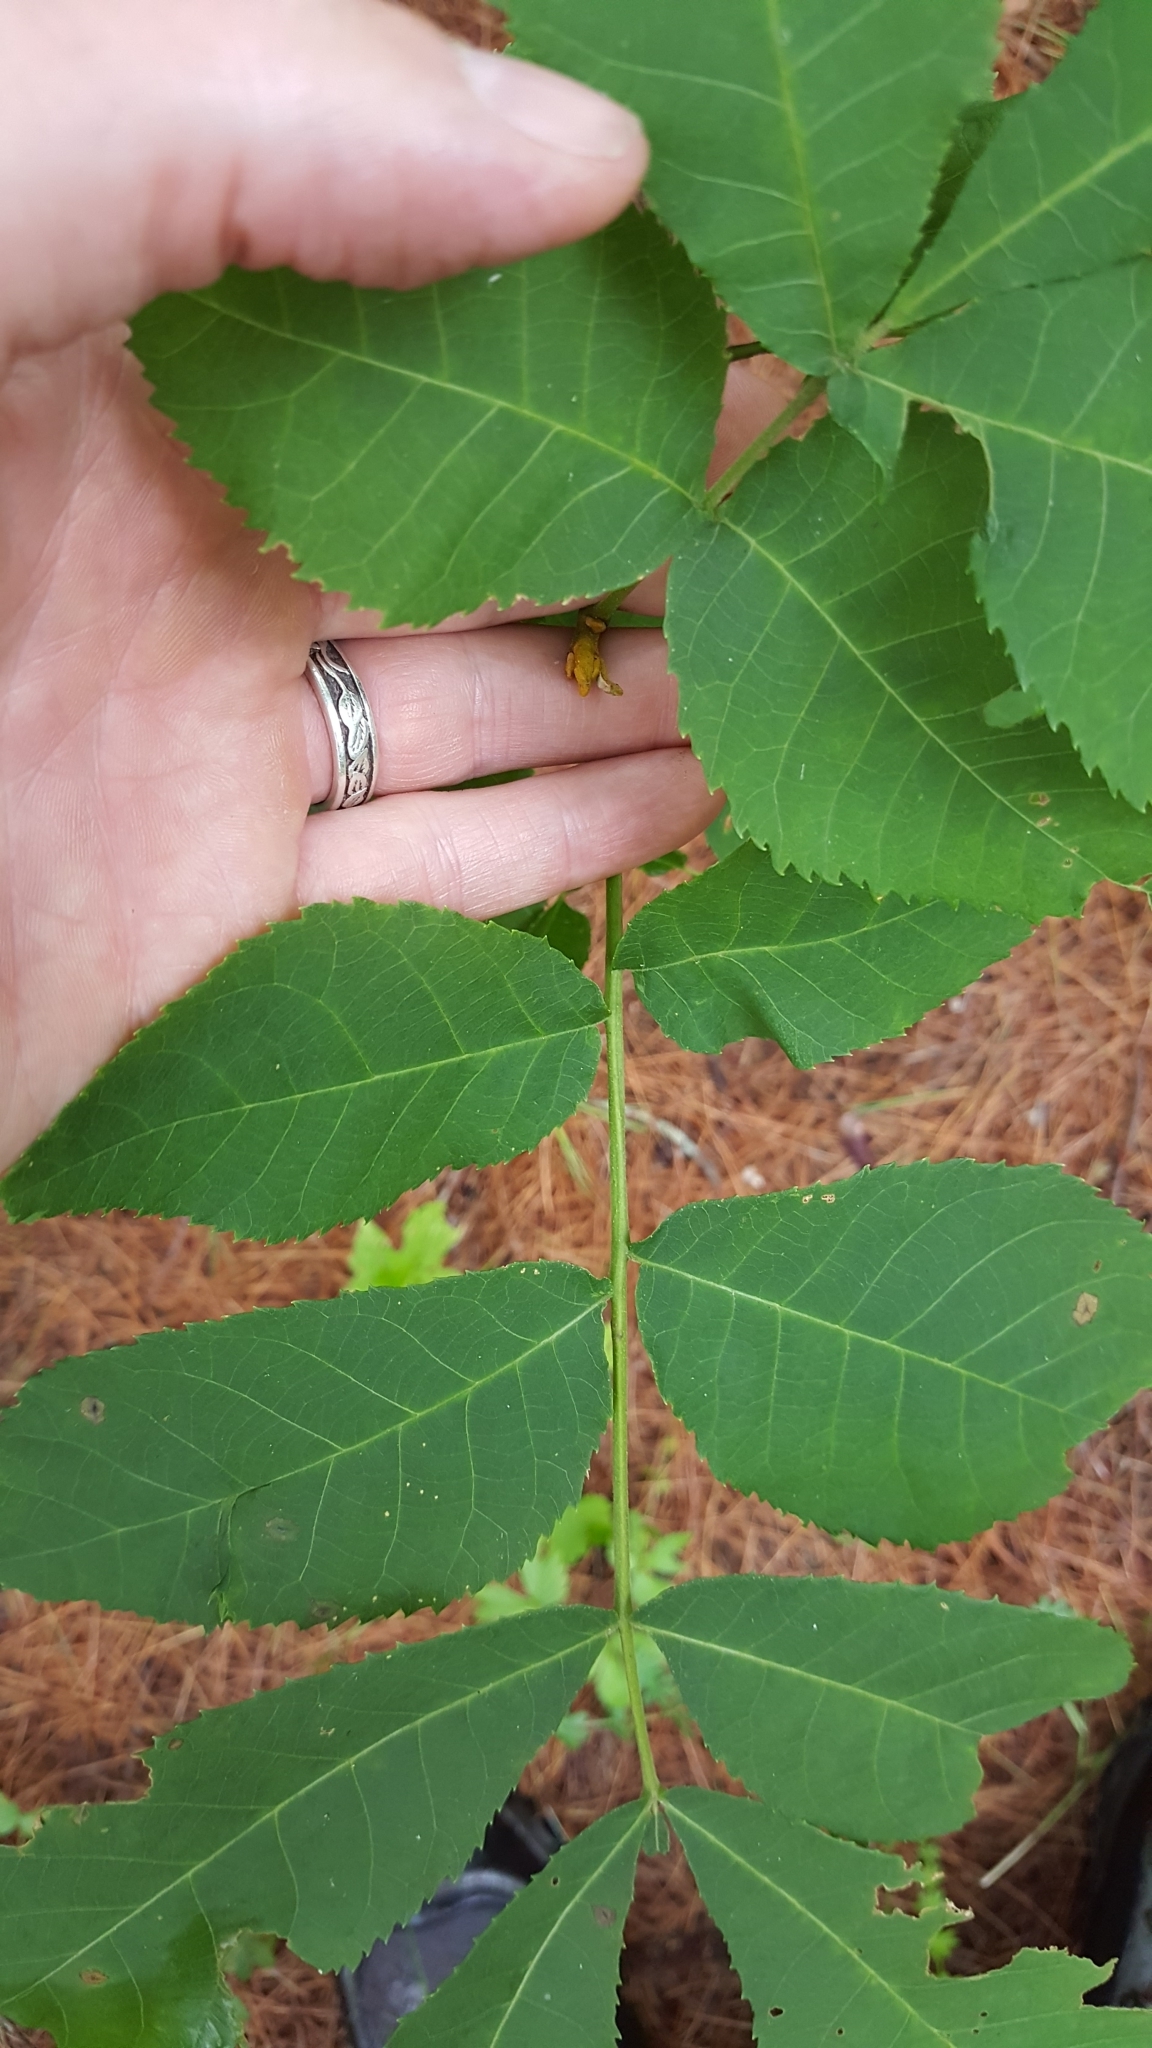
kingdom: Plantae
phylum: Tracheophyta
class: Magnoliopsida
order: Fagales
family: Juglandaceae
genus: Carya
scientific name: Carya cordiformis
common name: Bitternut hickory
